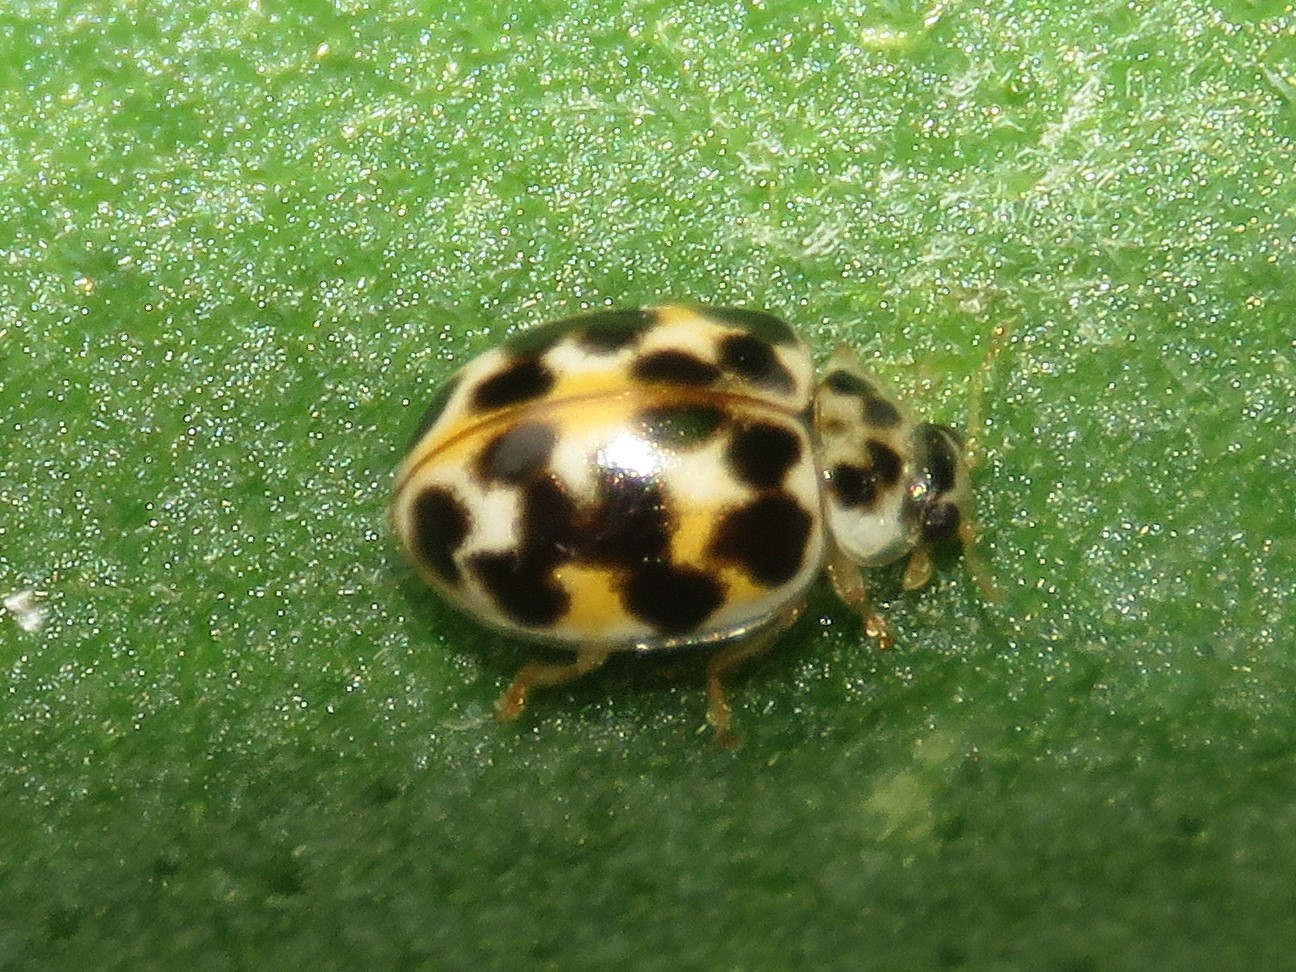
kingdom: Animalia
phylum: Arthropoda
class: Insecta
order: Coleoptera
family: Coccinellidae
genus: Psyllobora
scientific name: Psyllobora vigintimaculata
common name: Ladybird beetle
